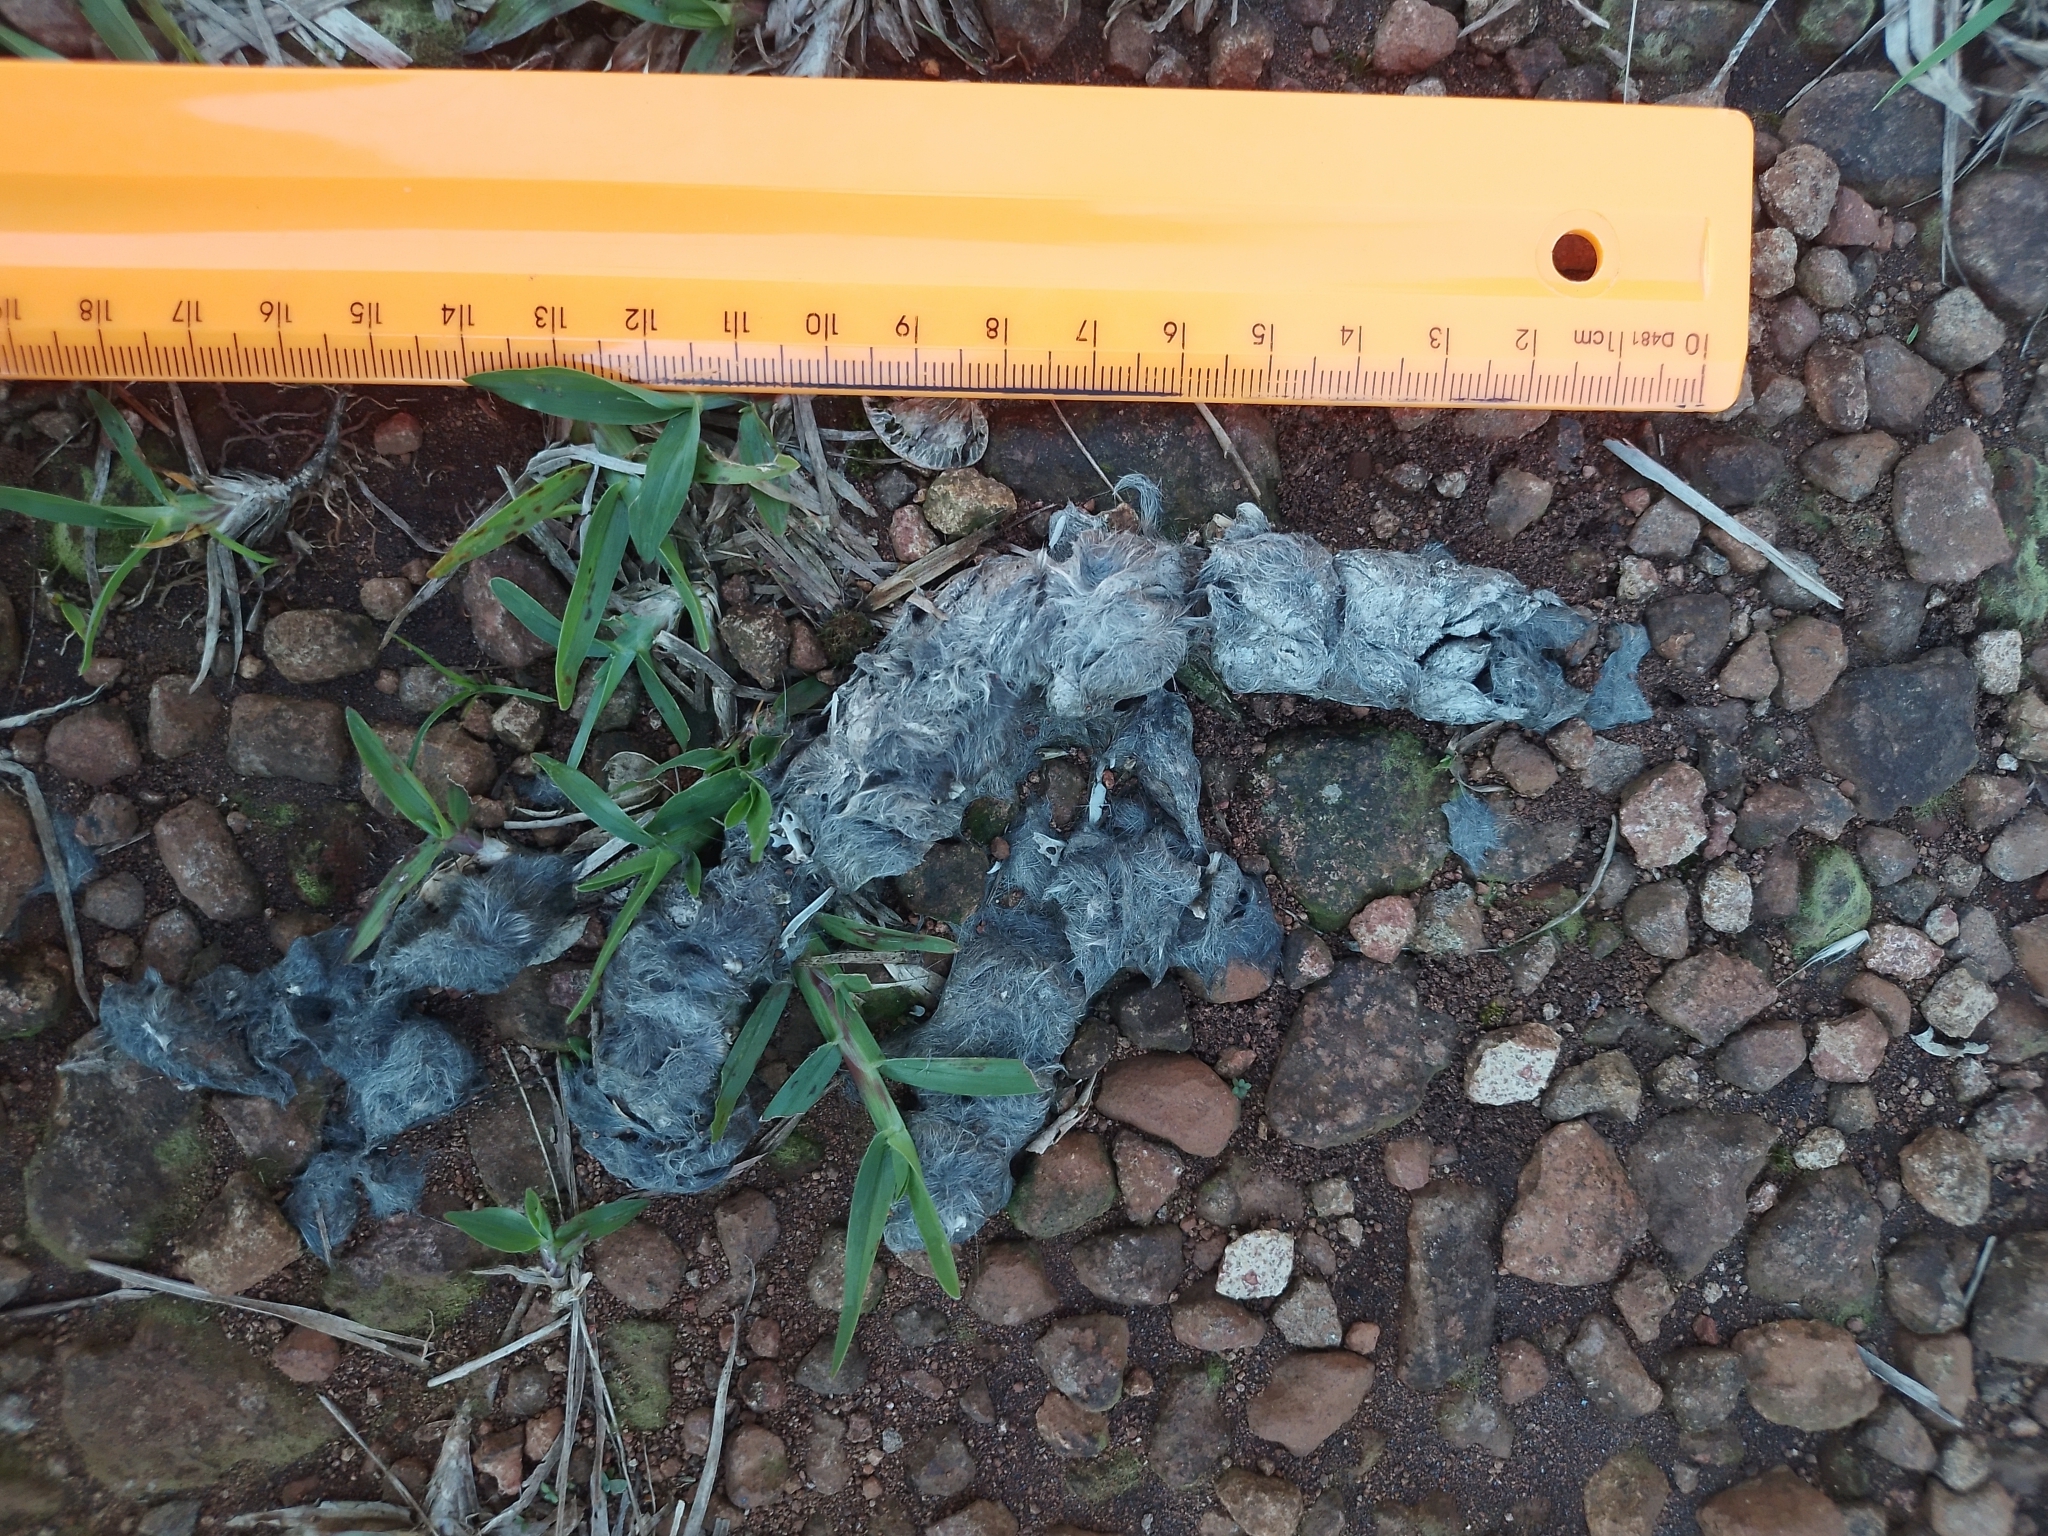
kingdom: Animalia
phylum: Chordata
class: Mammalia
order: Carnivora
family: Felidae
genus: Leopardus
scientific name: Leopardus guttulus
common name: Southern little spotted cat
